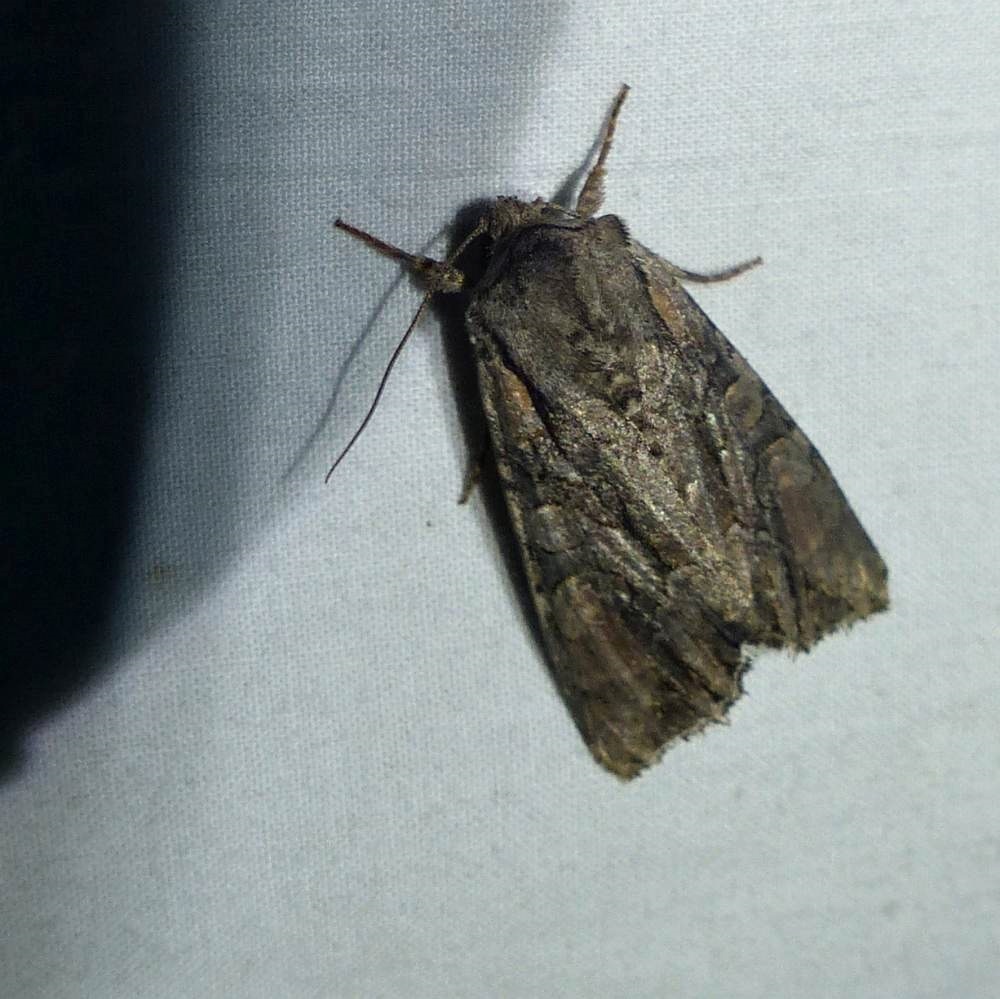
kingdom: Animalia
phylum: Arthropoda
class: Insecta
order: Lepidoptera
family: Noctuidae
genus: Lacanobia
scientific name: Lacanobia subjuncta
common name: Speckled cutworm moth
